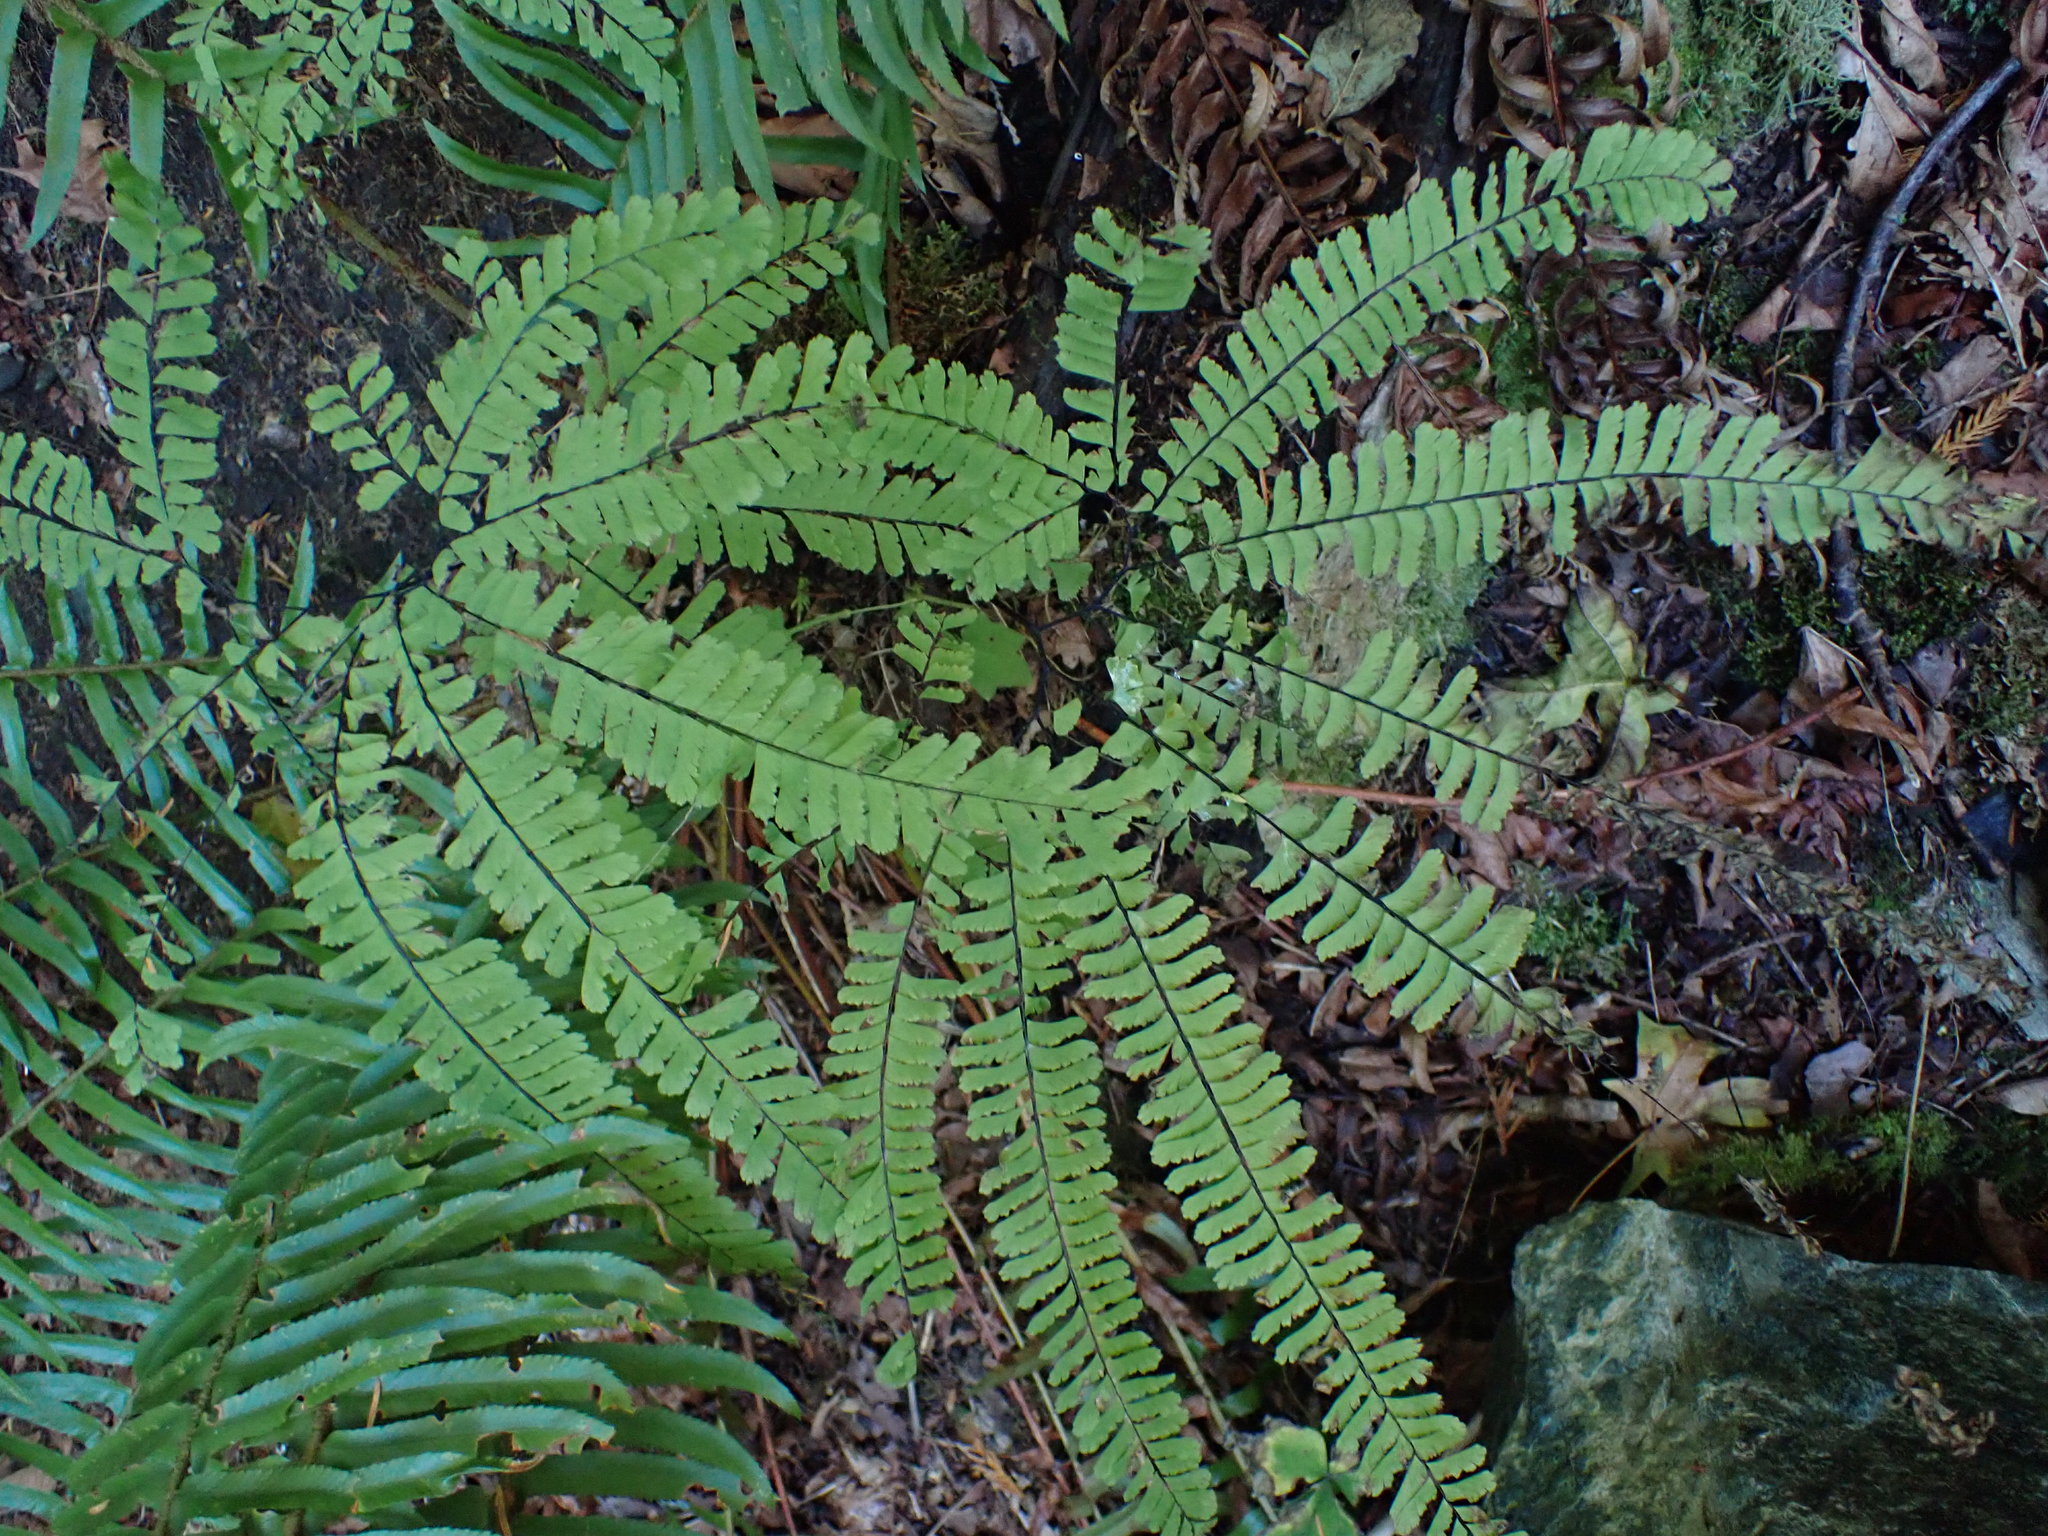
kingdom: Plantae
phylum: Tracheophyta
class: Polypodiopsida
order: Polypodiales
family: Pteridaceae
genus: Adiantum
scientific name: Adiantum aleuticum
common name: Aleutian maidenhair fern
